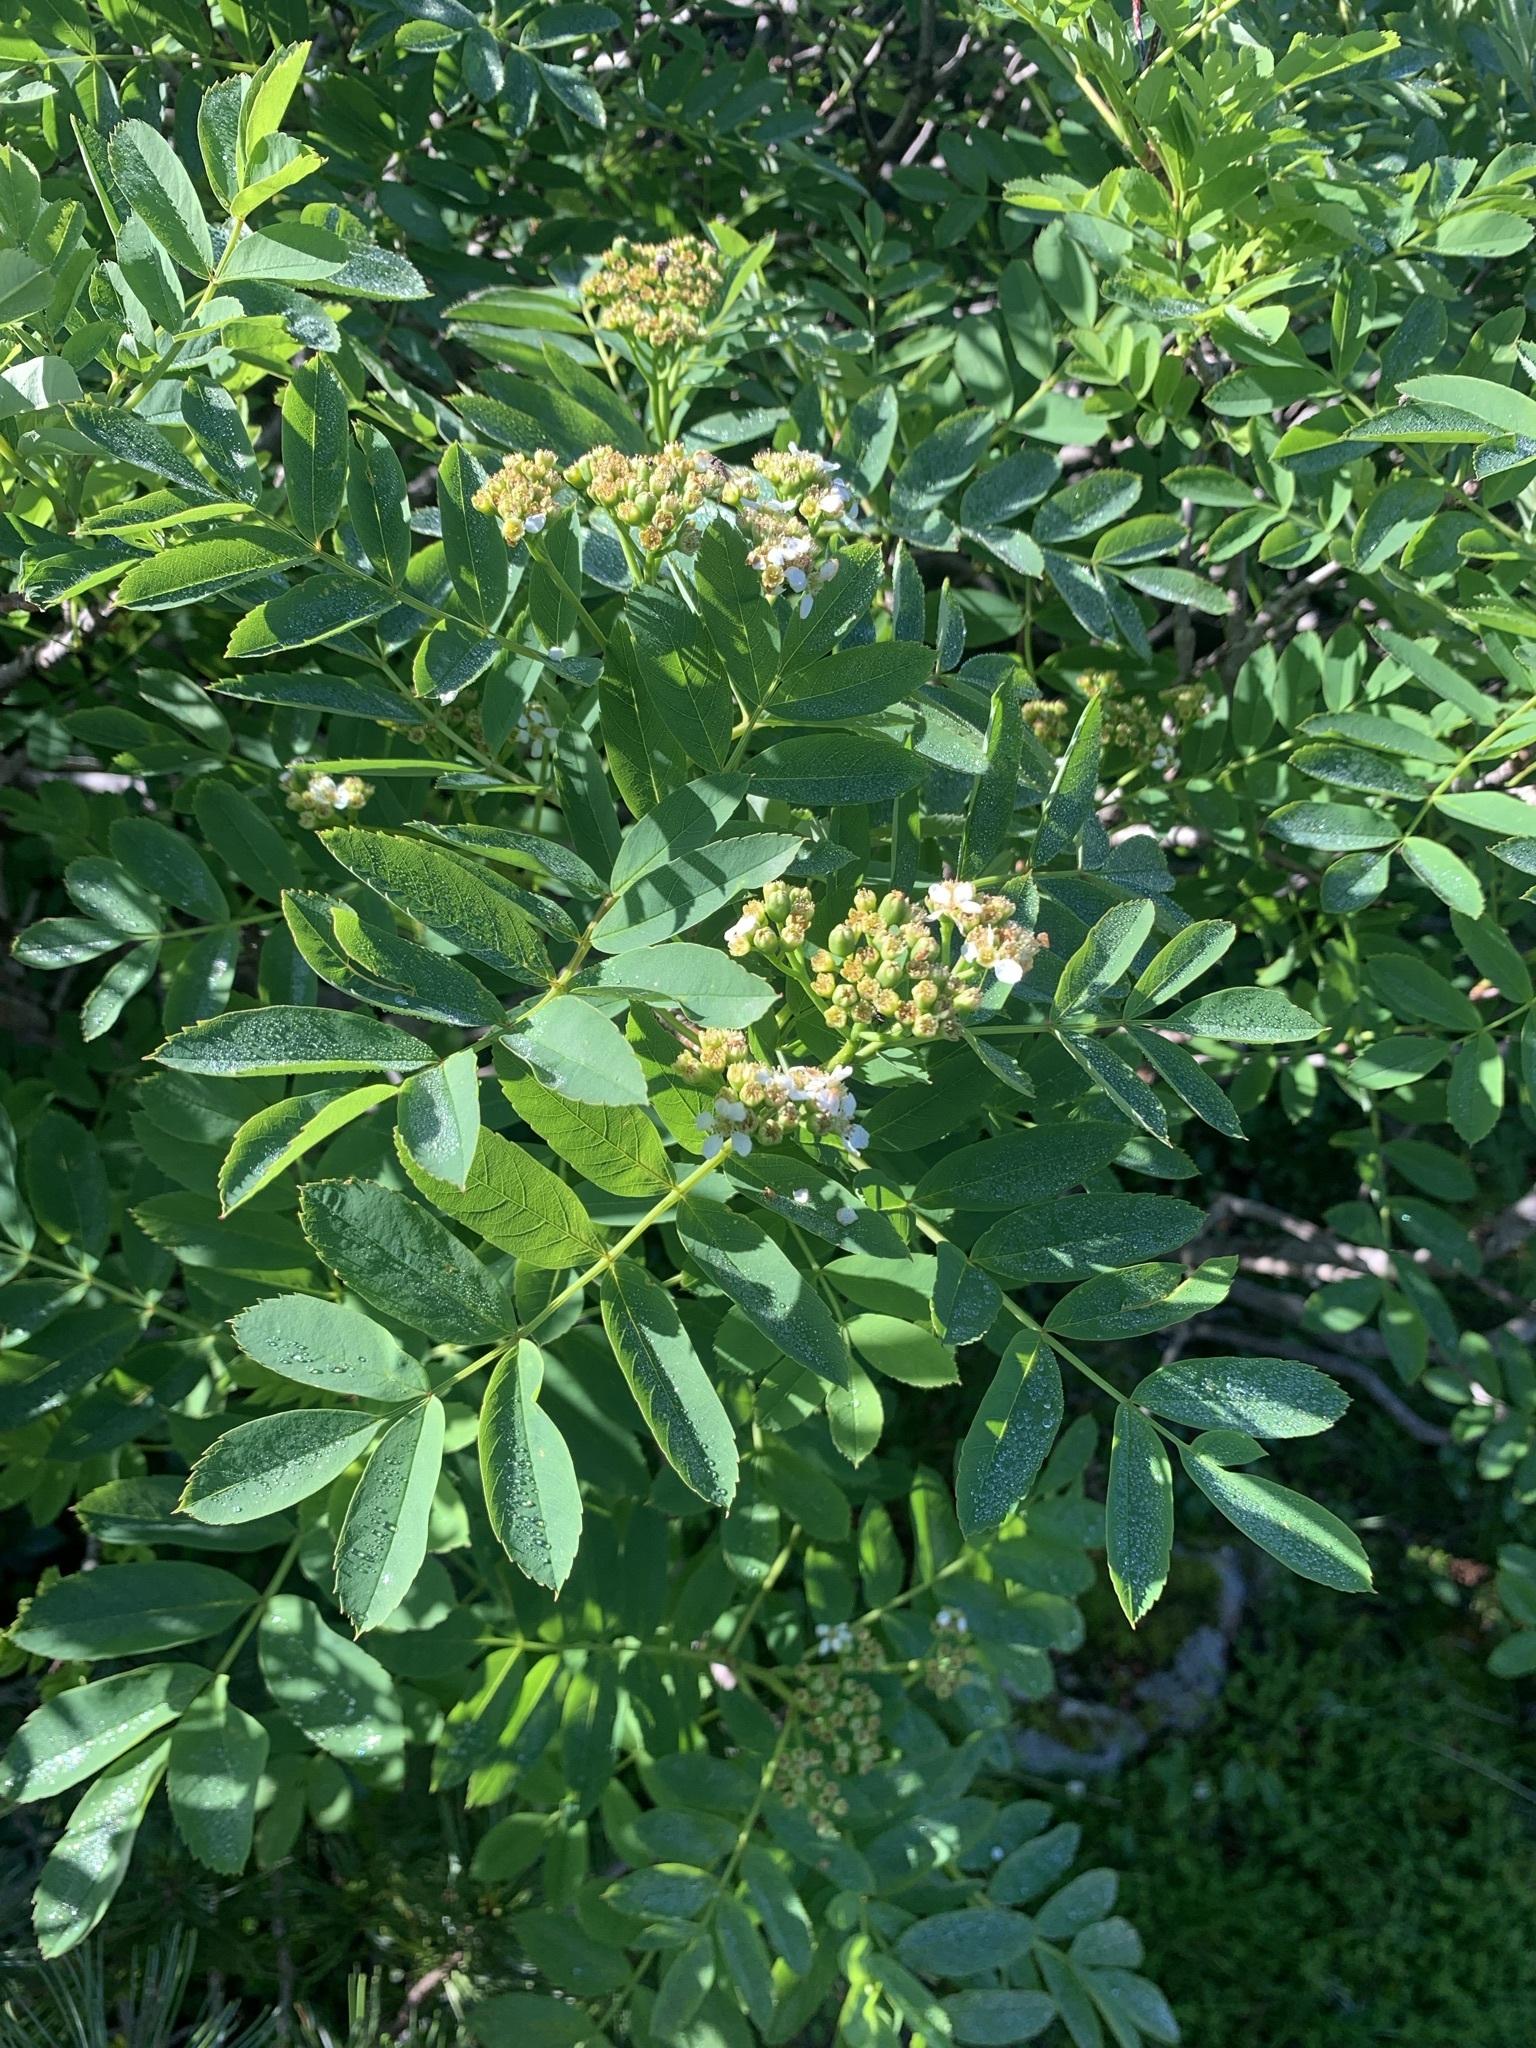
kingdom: Plantae
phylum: Tracheophyta
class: Magnoliopsida
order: Rosales
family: Rosaceae
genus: Sorbus
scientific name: Sorbus matsumurana
